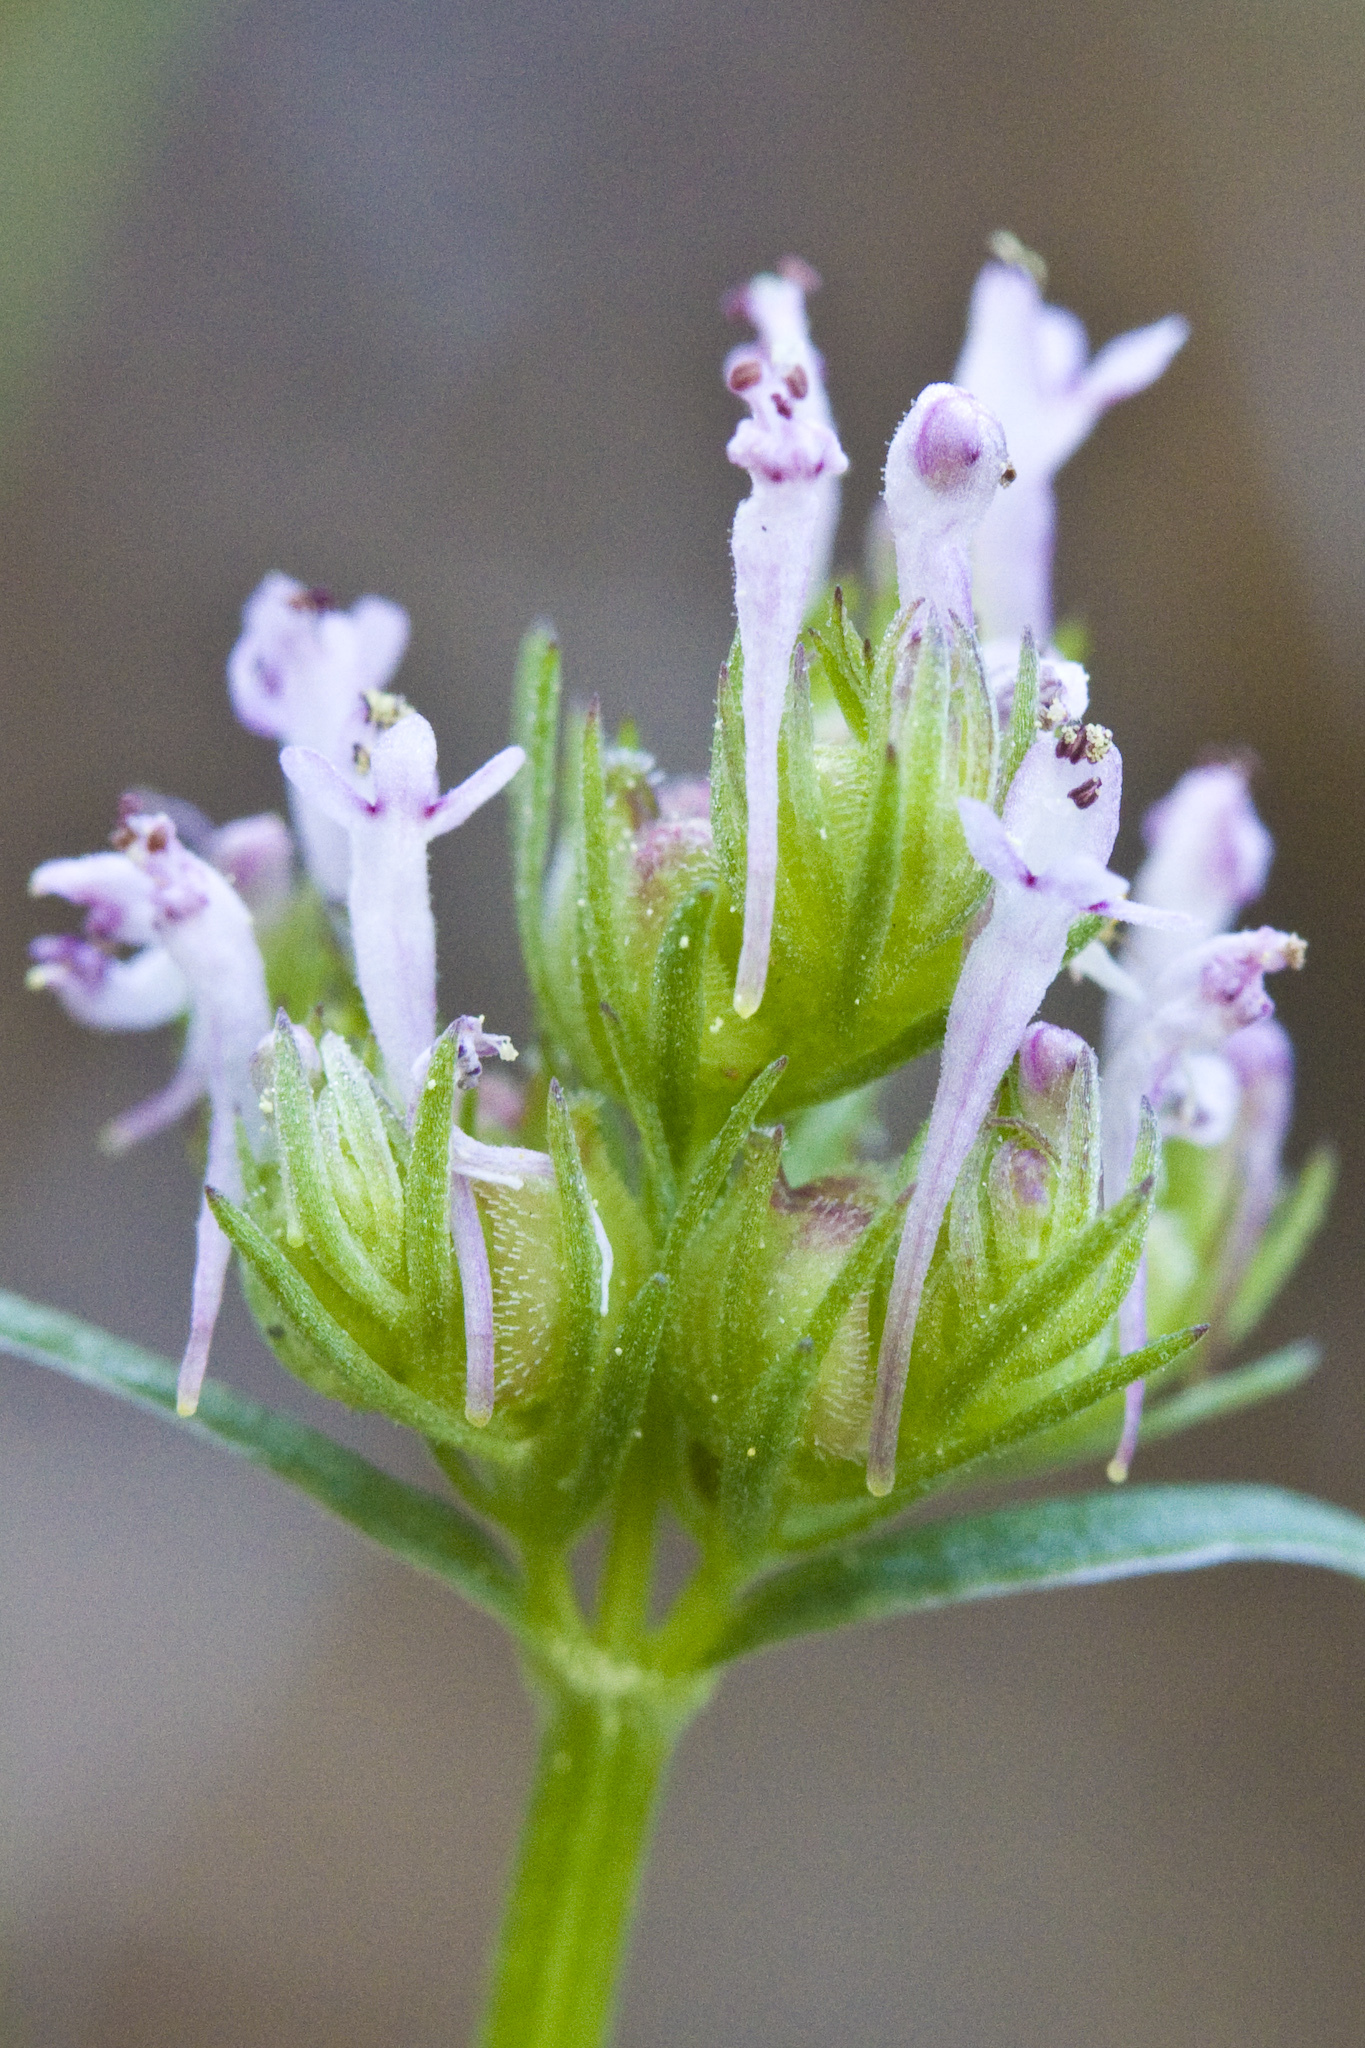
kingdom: Plantae
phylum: Tracheophyta
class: Magnoliopsida
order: Dipsacales
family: Caprifoliaceae
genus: Plectritis
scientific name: Plectritis ciliosa
